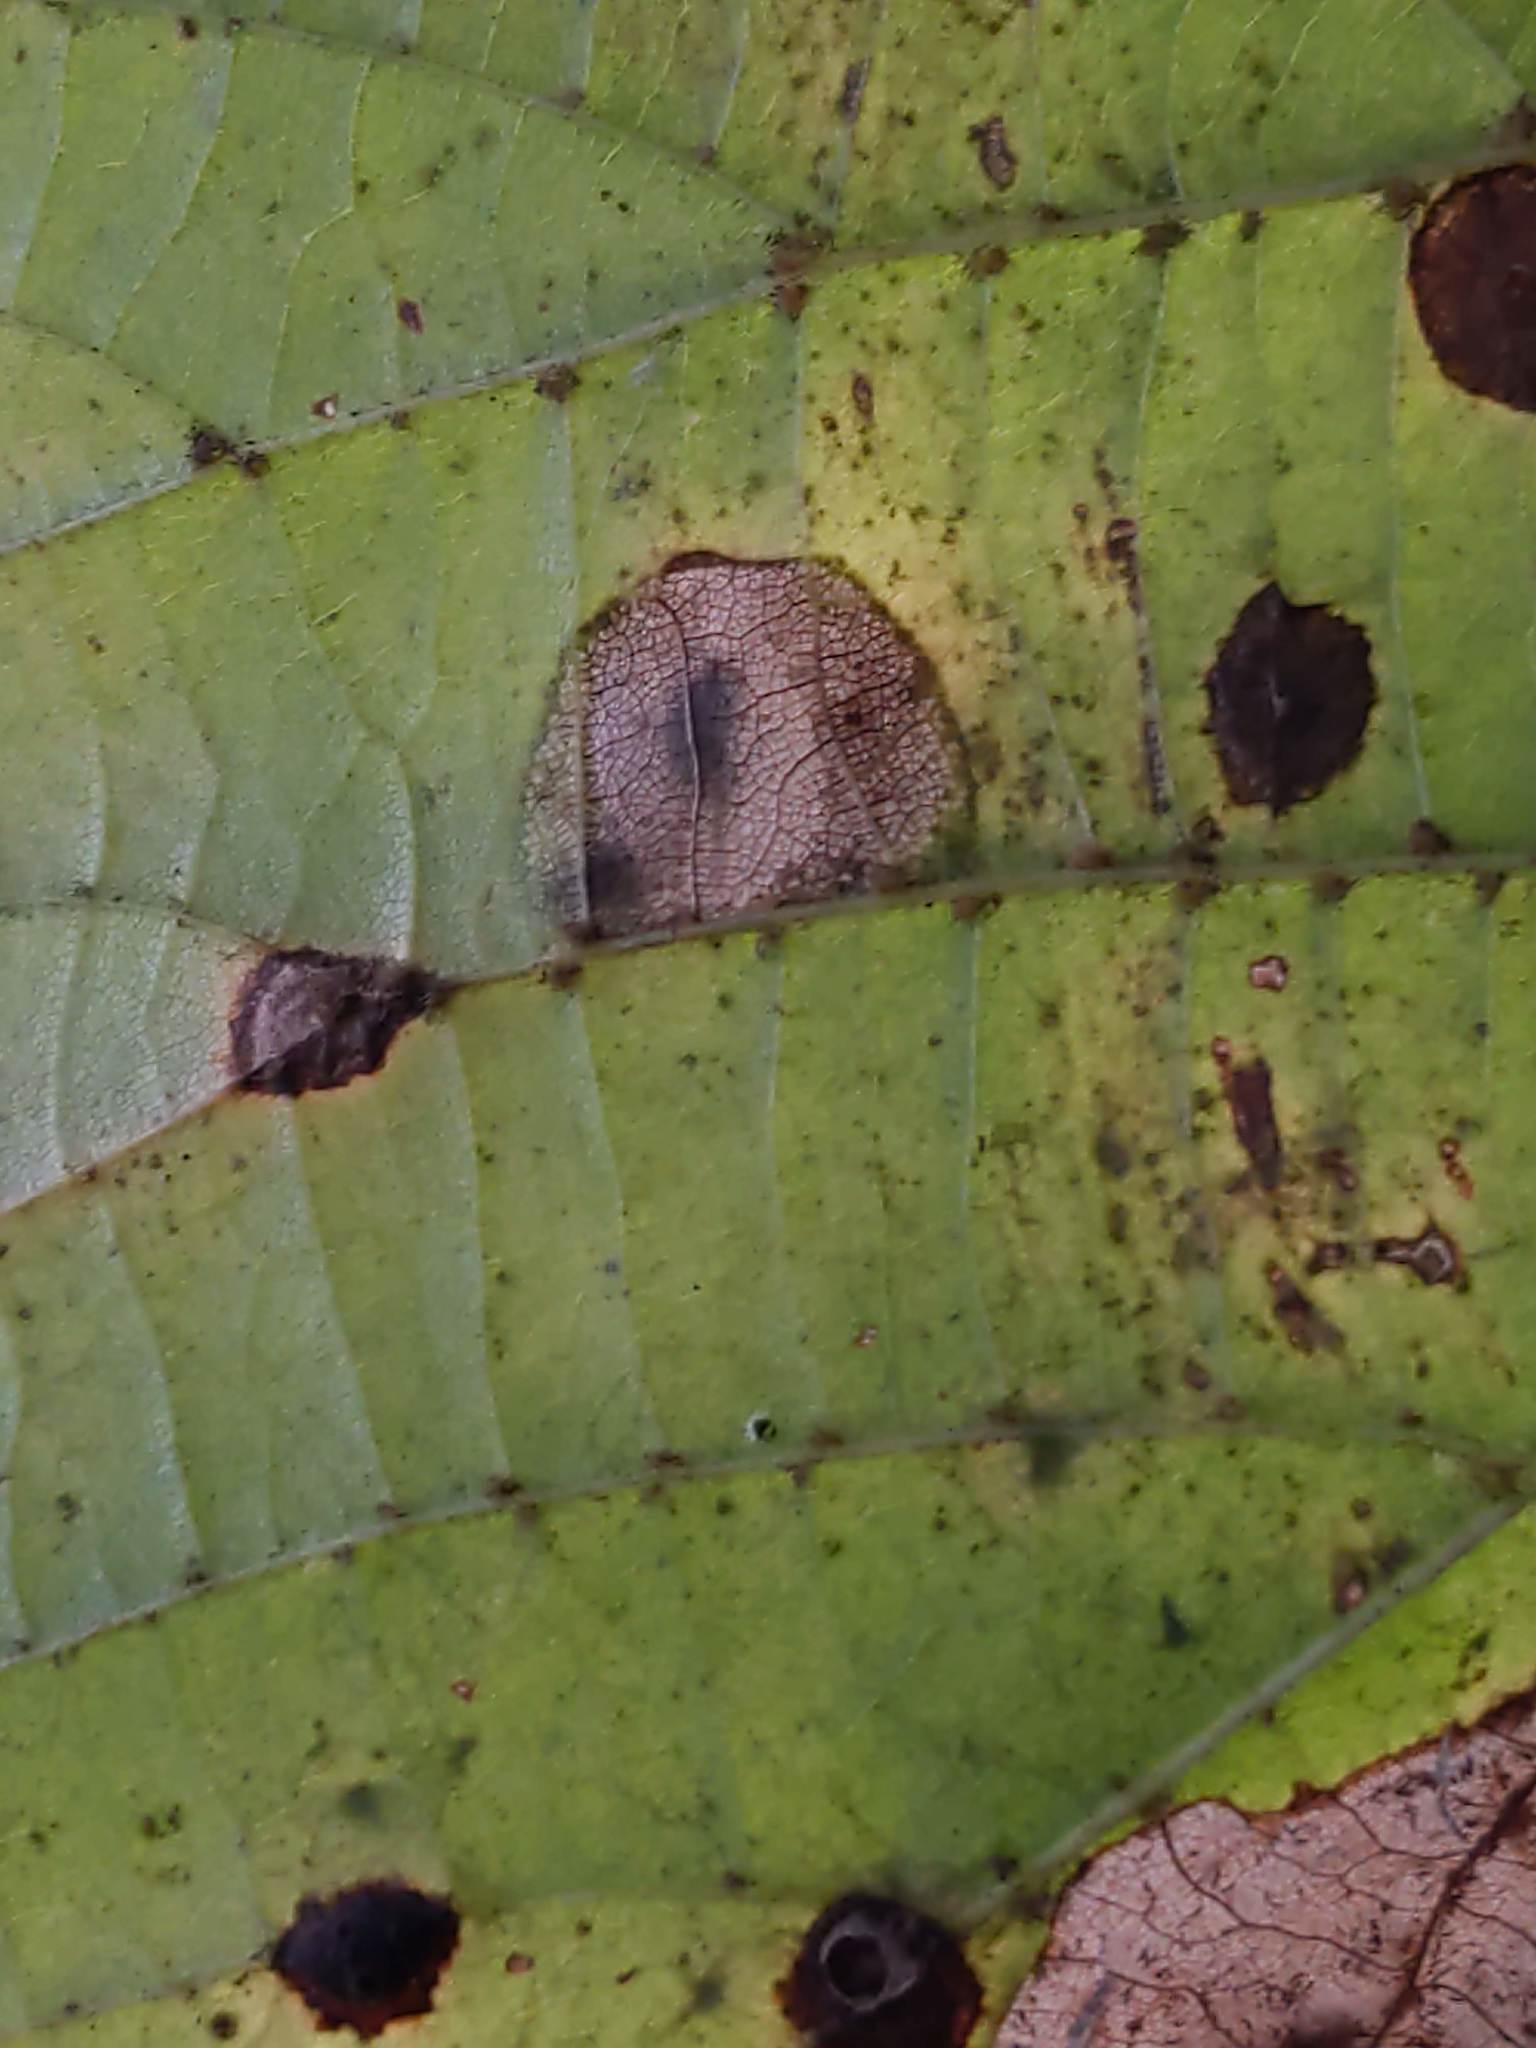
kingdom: Animalia
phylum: Arthropoda
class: Insecta
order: Lepidoptera
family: Gracillariidae
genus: Phyllonorycter
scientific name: Phyllonorycter lucetiella
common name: Basswood miner moth
